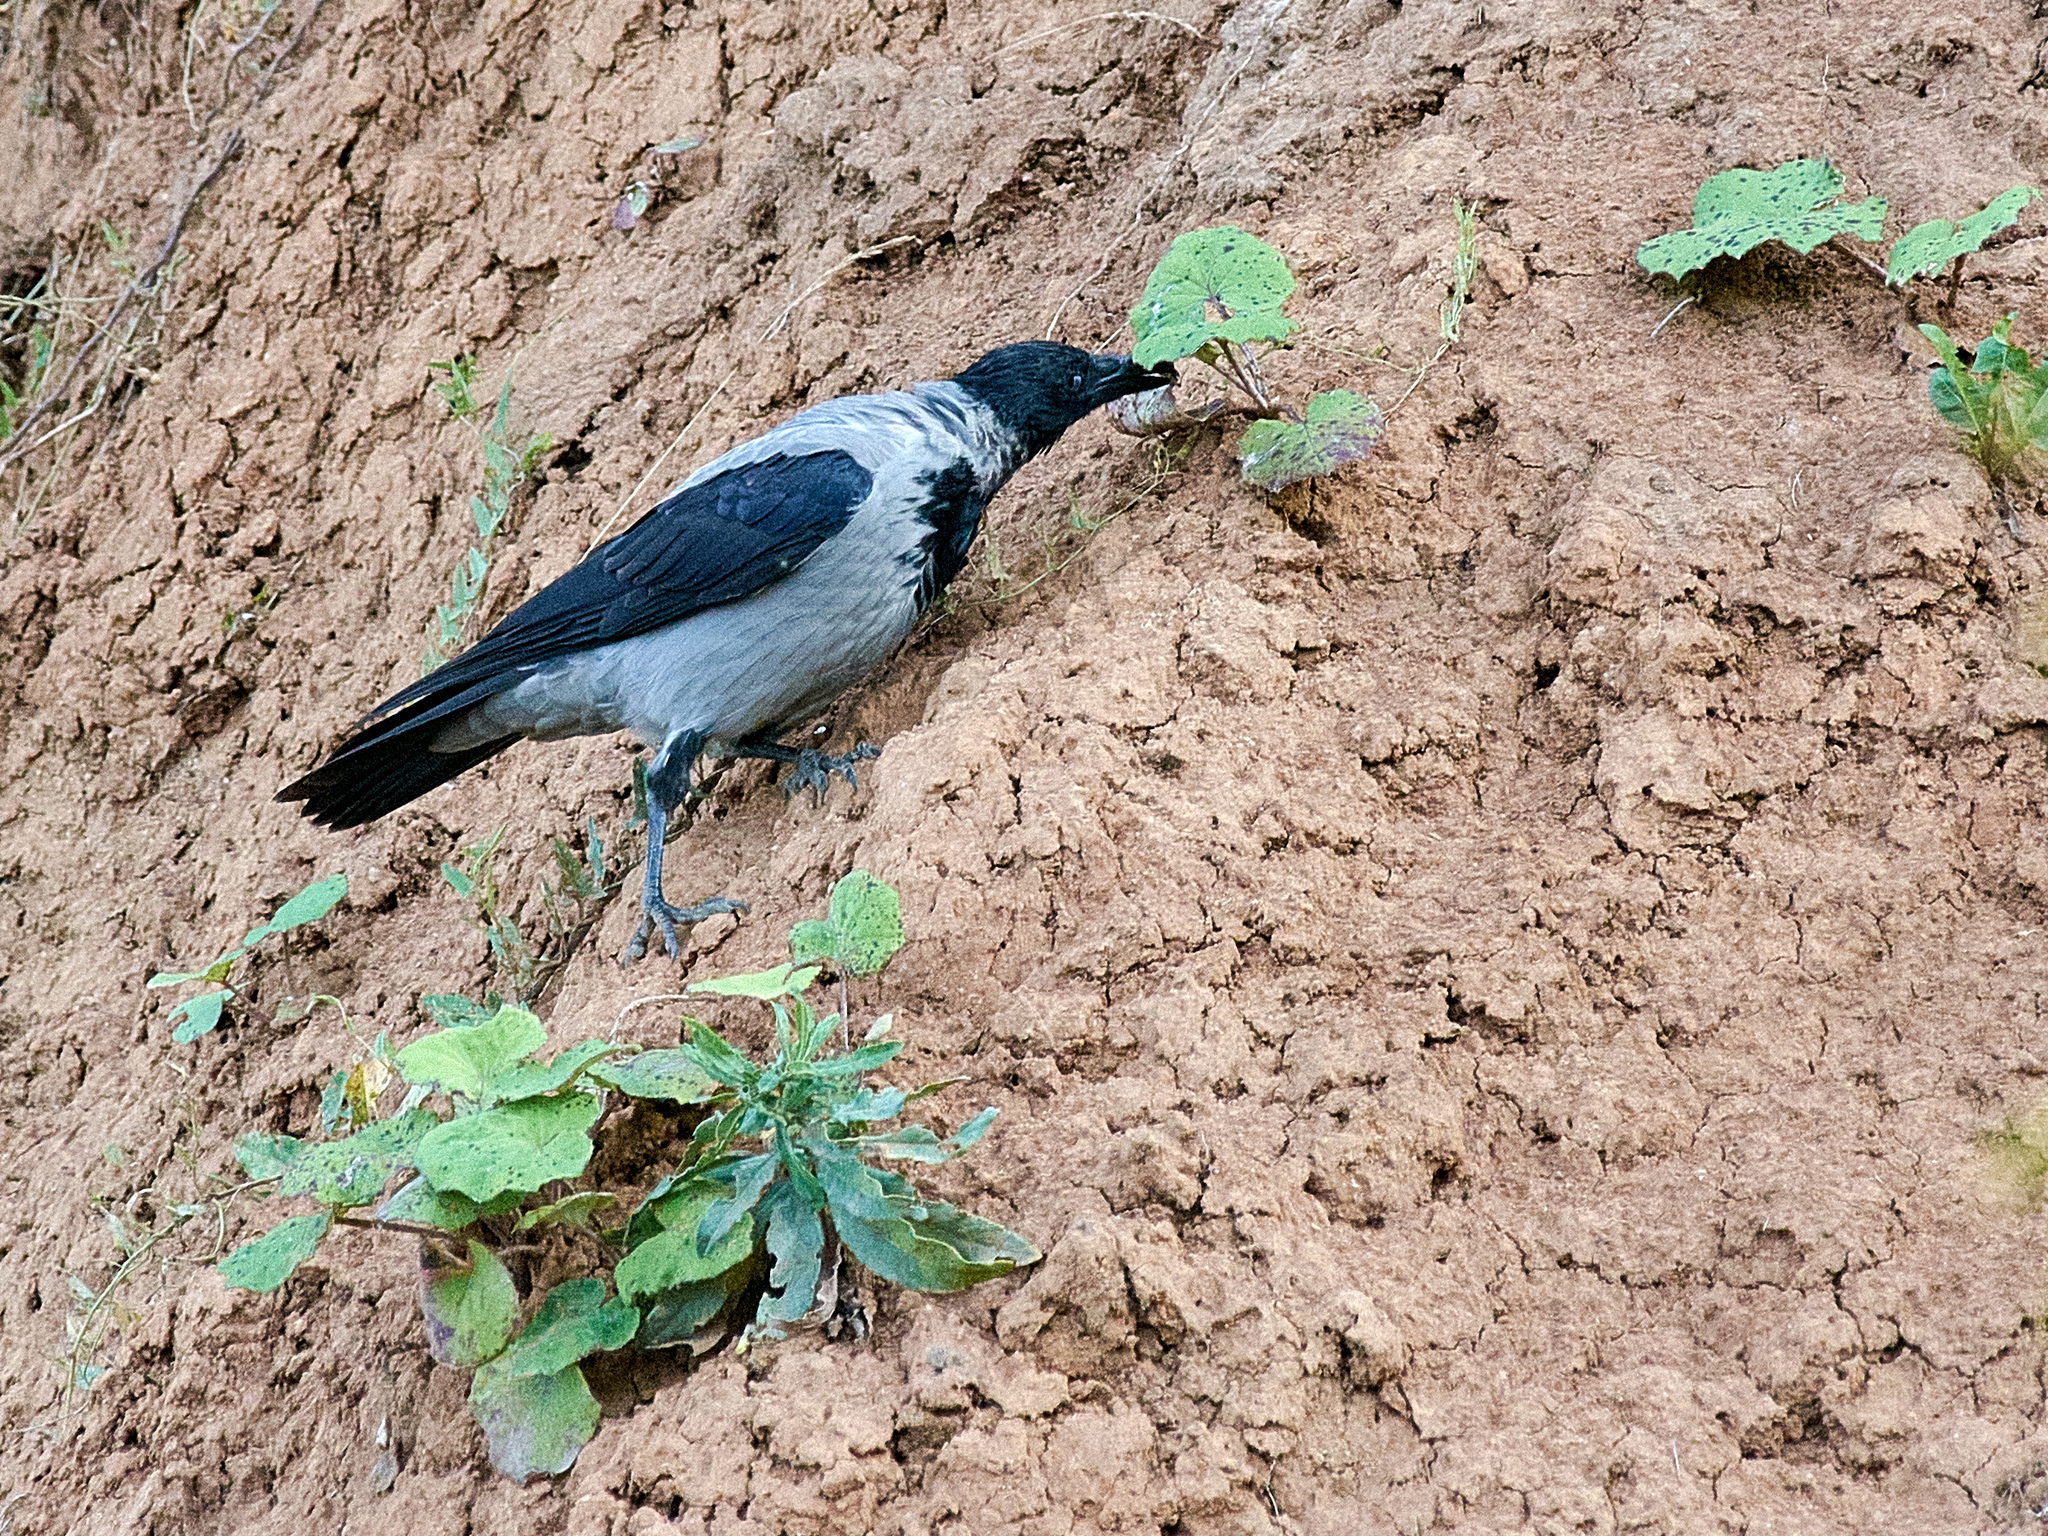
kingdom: Animalia
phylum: Chordata
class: Aves
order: Passeriformes
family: Corvidae
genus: Corvus
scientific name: Corvus cornix
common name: Hooded crow
